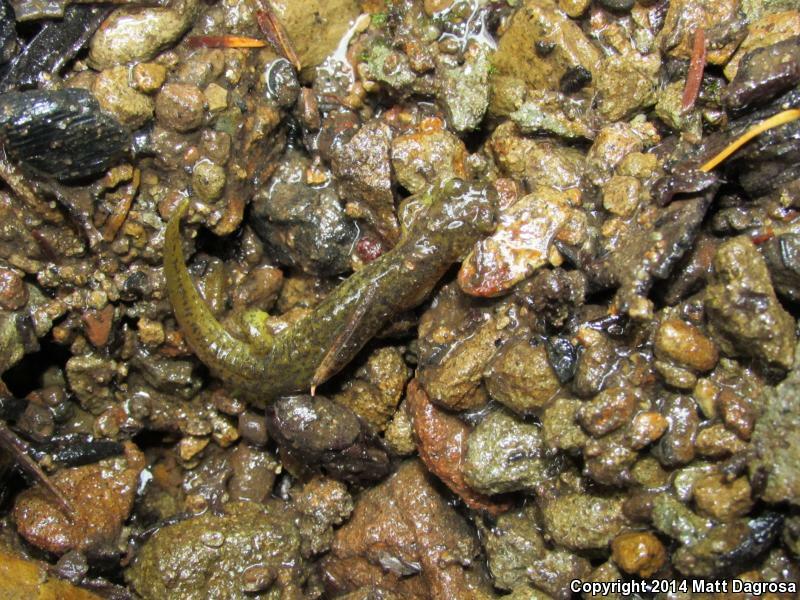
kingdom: Animalia
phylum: Chordata
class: Amphibia
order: Caudata
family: Rhyacotritonidae
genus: Rhyacotriton
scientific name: Rhyacotriton variegatus
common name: Southern torrent salamander
